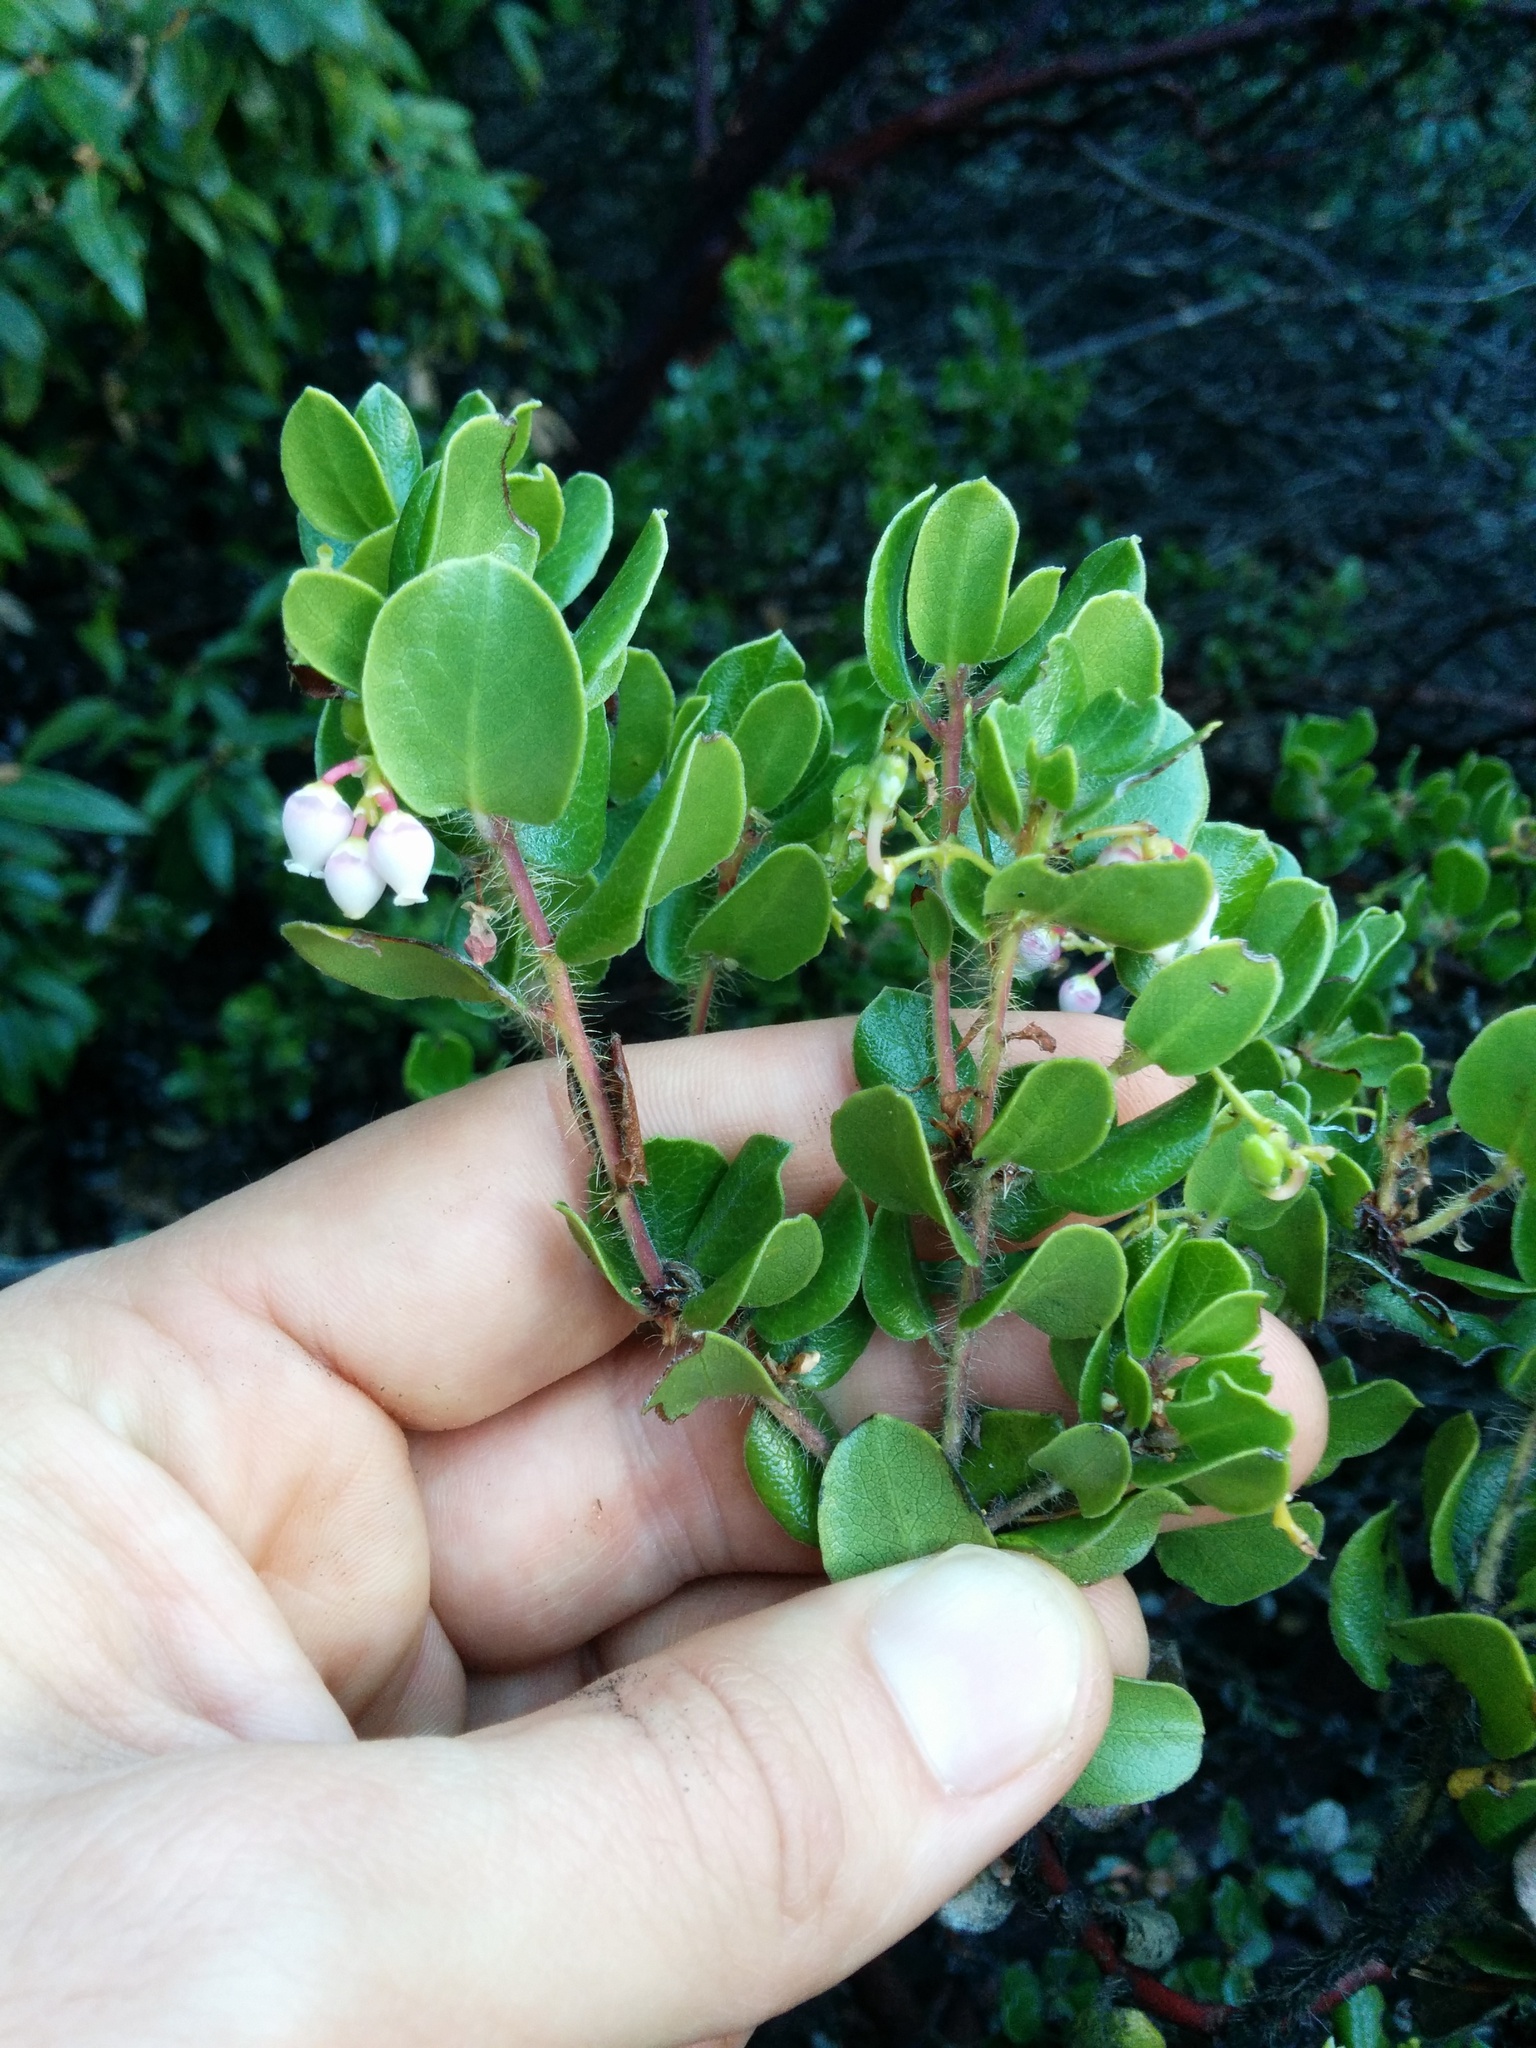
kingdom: Plantae
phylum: Tracheophyta
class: Magnoliopsida
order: Ericales
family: Ericaceae
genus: Arctostaphylos
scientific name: Arctostaphylos nummularia
